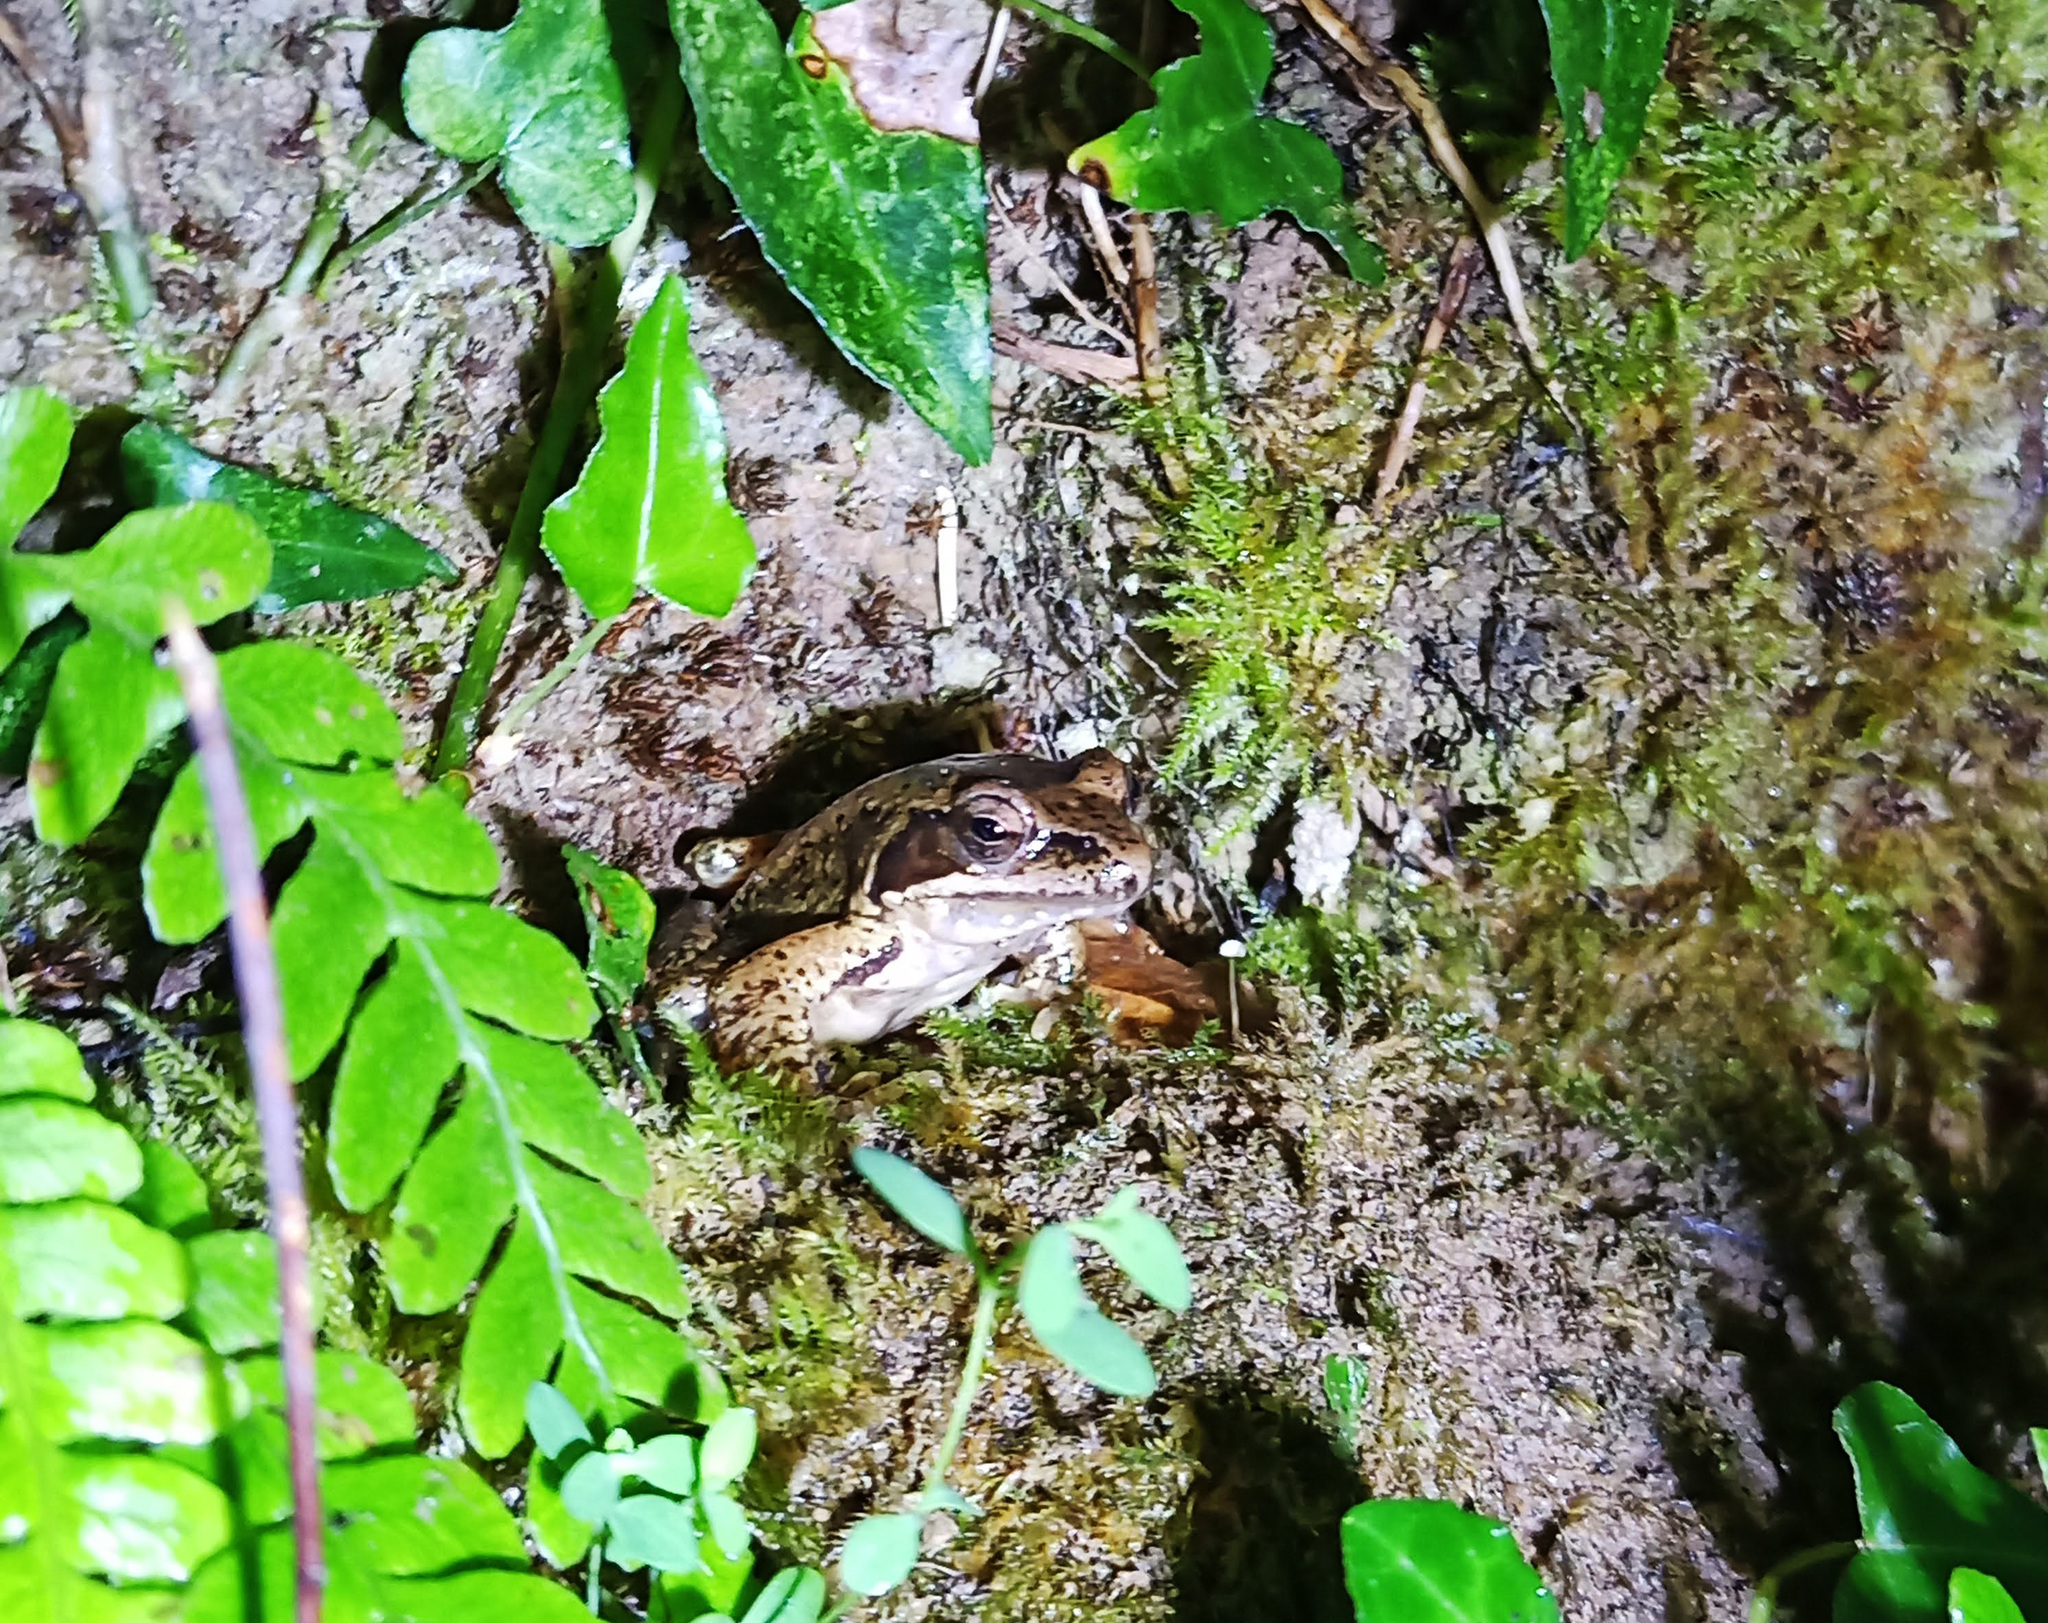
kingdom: Animalia
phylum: Chordata
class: Amphibia
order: Anura
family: Ranidae
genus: Rana
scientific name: Rana temporaria
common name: Common frog
